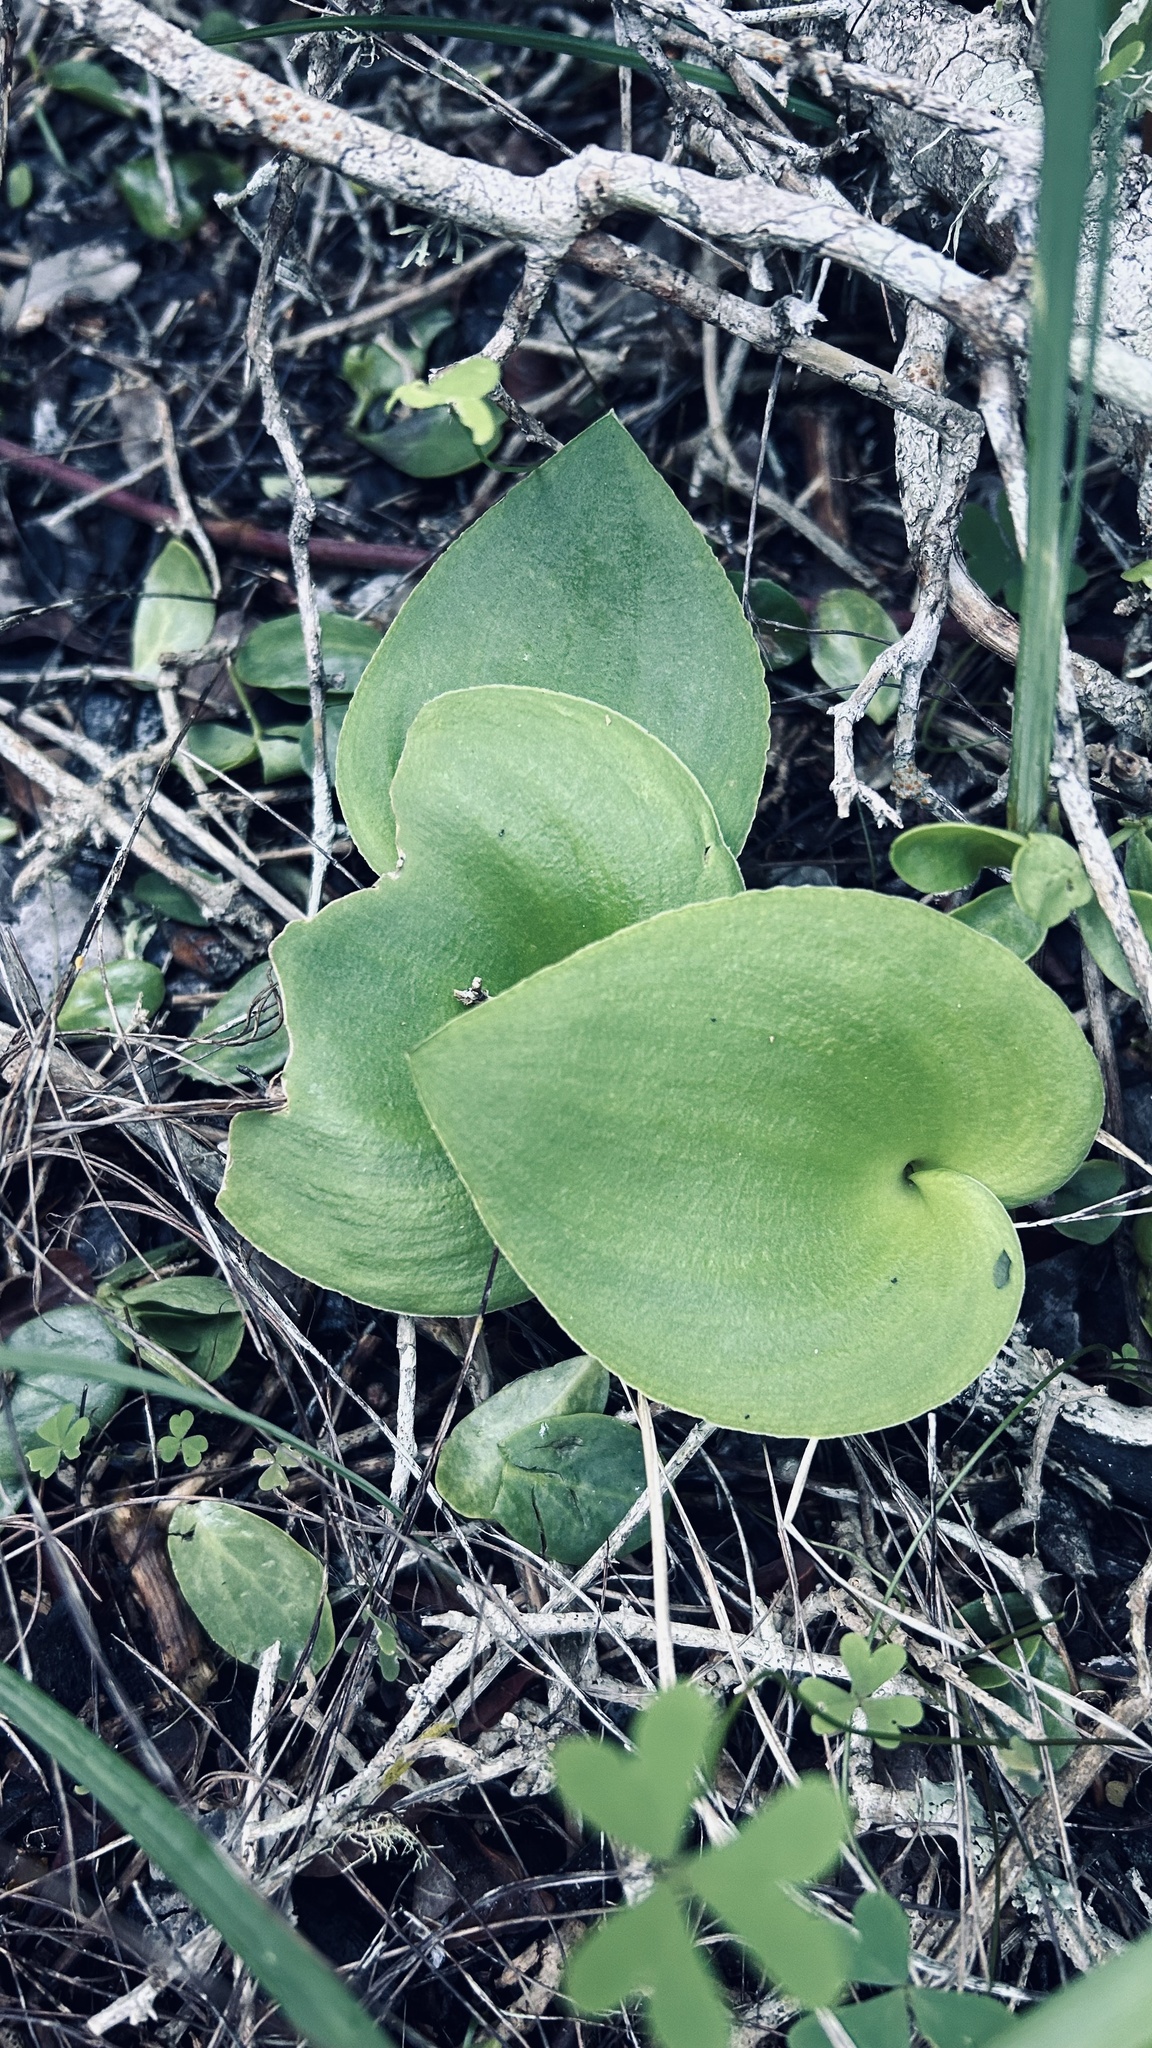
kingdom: Plantae
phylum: Tracheophyta
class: Liliopsida
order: Asparagales
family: Asparagaceae
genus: Eriospermum
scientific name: Eriospermum capense
